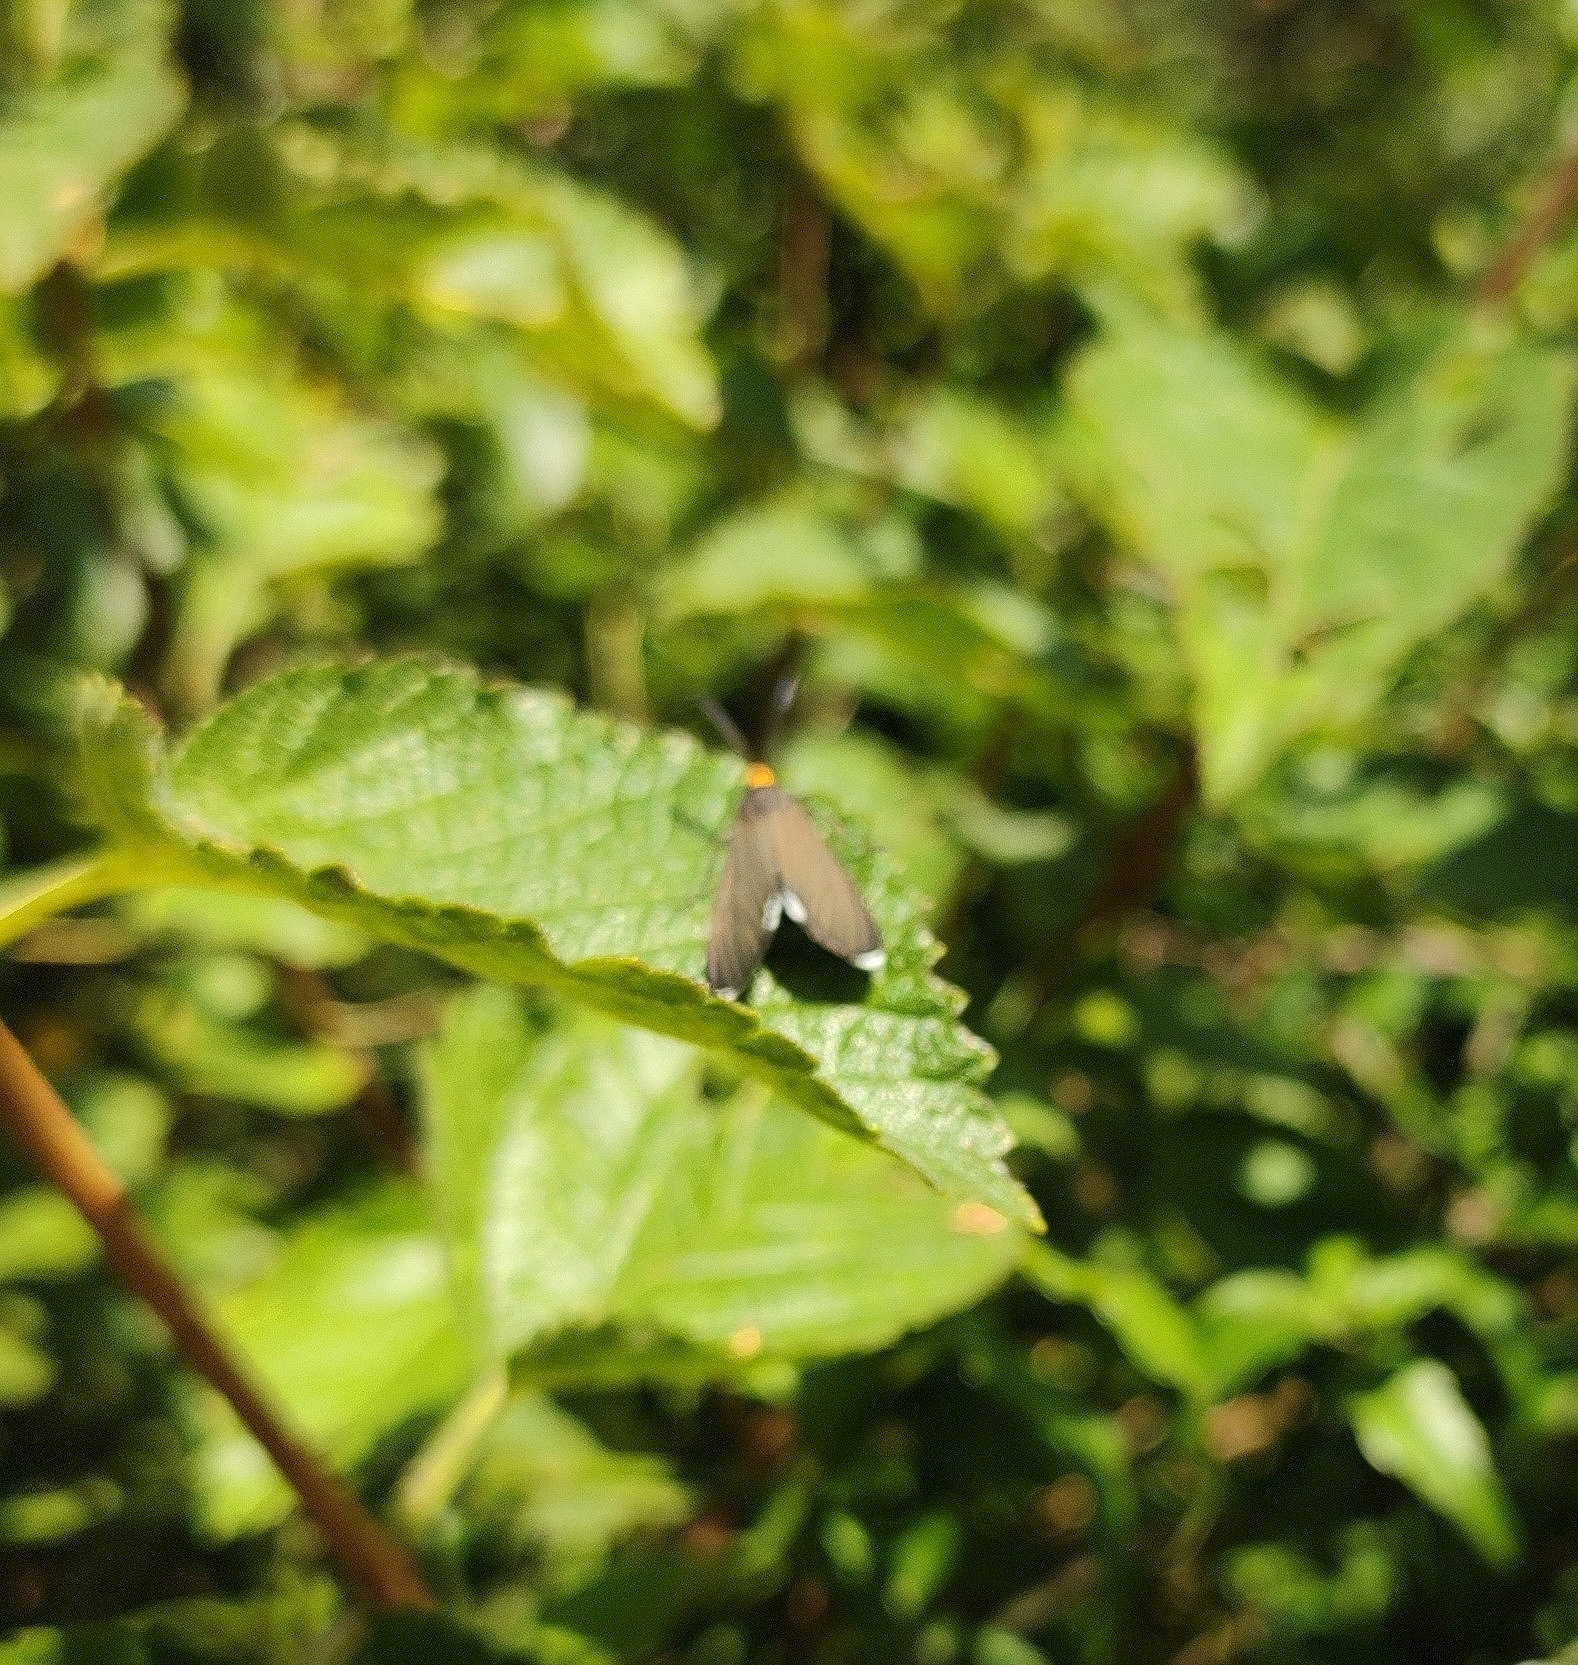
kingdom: Animalia
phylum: Arthropoda
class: Insecta
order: Lepidoptera
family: Erebidae
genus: Ctenucha
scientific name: Ctenucha rubriceps
